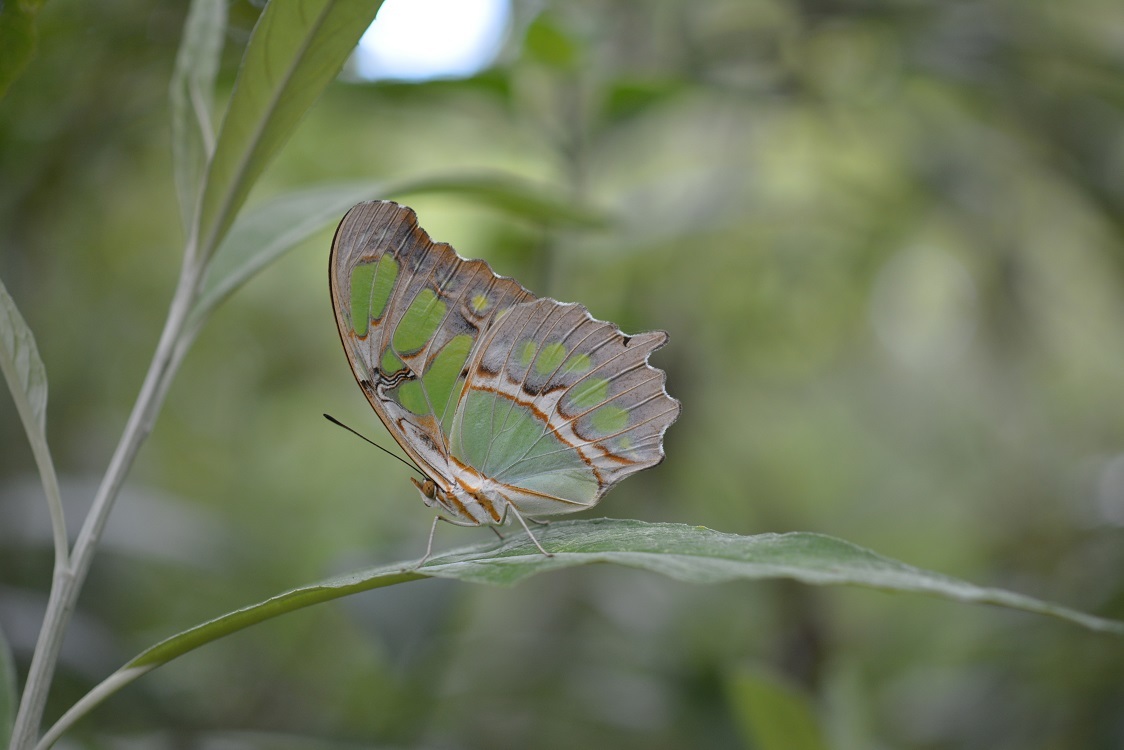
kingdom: Animalia
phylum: Arthropoda
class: Insecta
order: Lepidoptera
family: Nymphalidae
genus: Siproeta
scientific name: Siproeta stelenes
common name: Malachite
